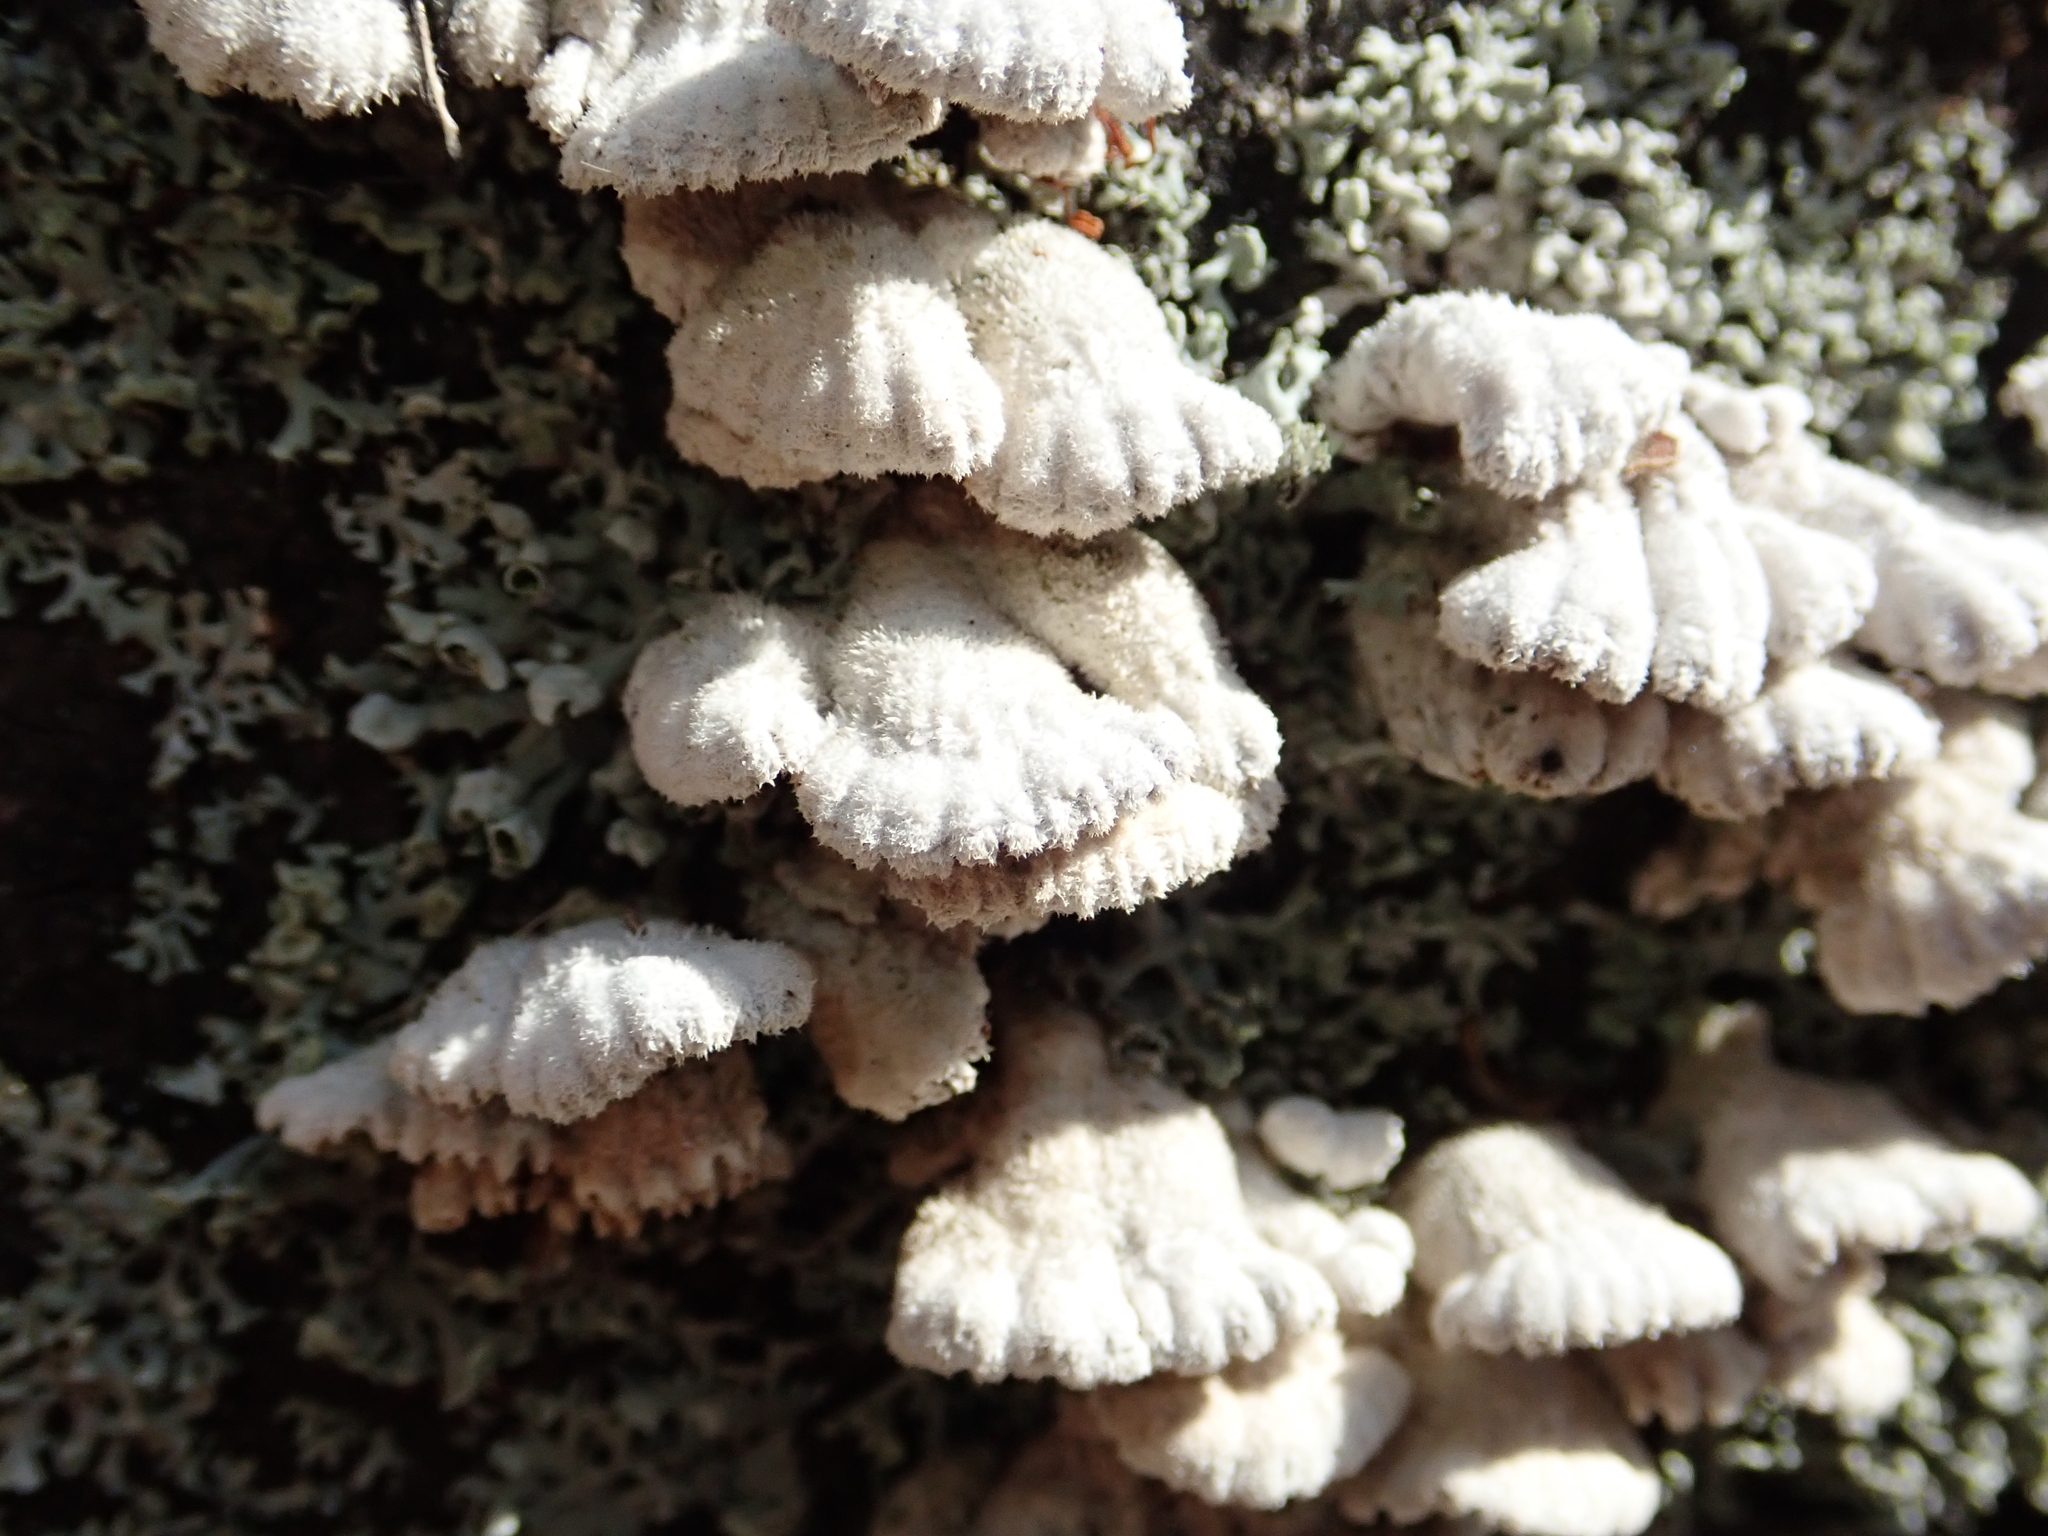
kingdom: Fungi
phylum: Basidiomycota
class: Agaricomycetes
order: Agaricales
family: Schizophyllaceae
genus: Schizophyllum
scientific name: Schizophyllum commune
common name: Common porecrust
